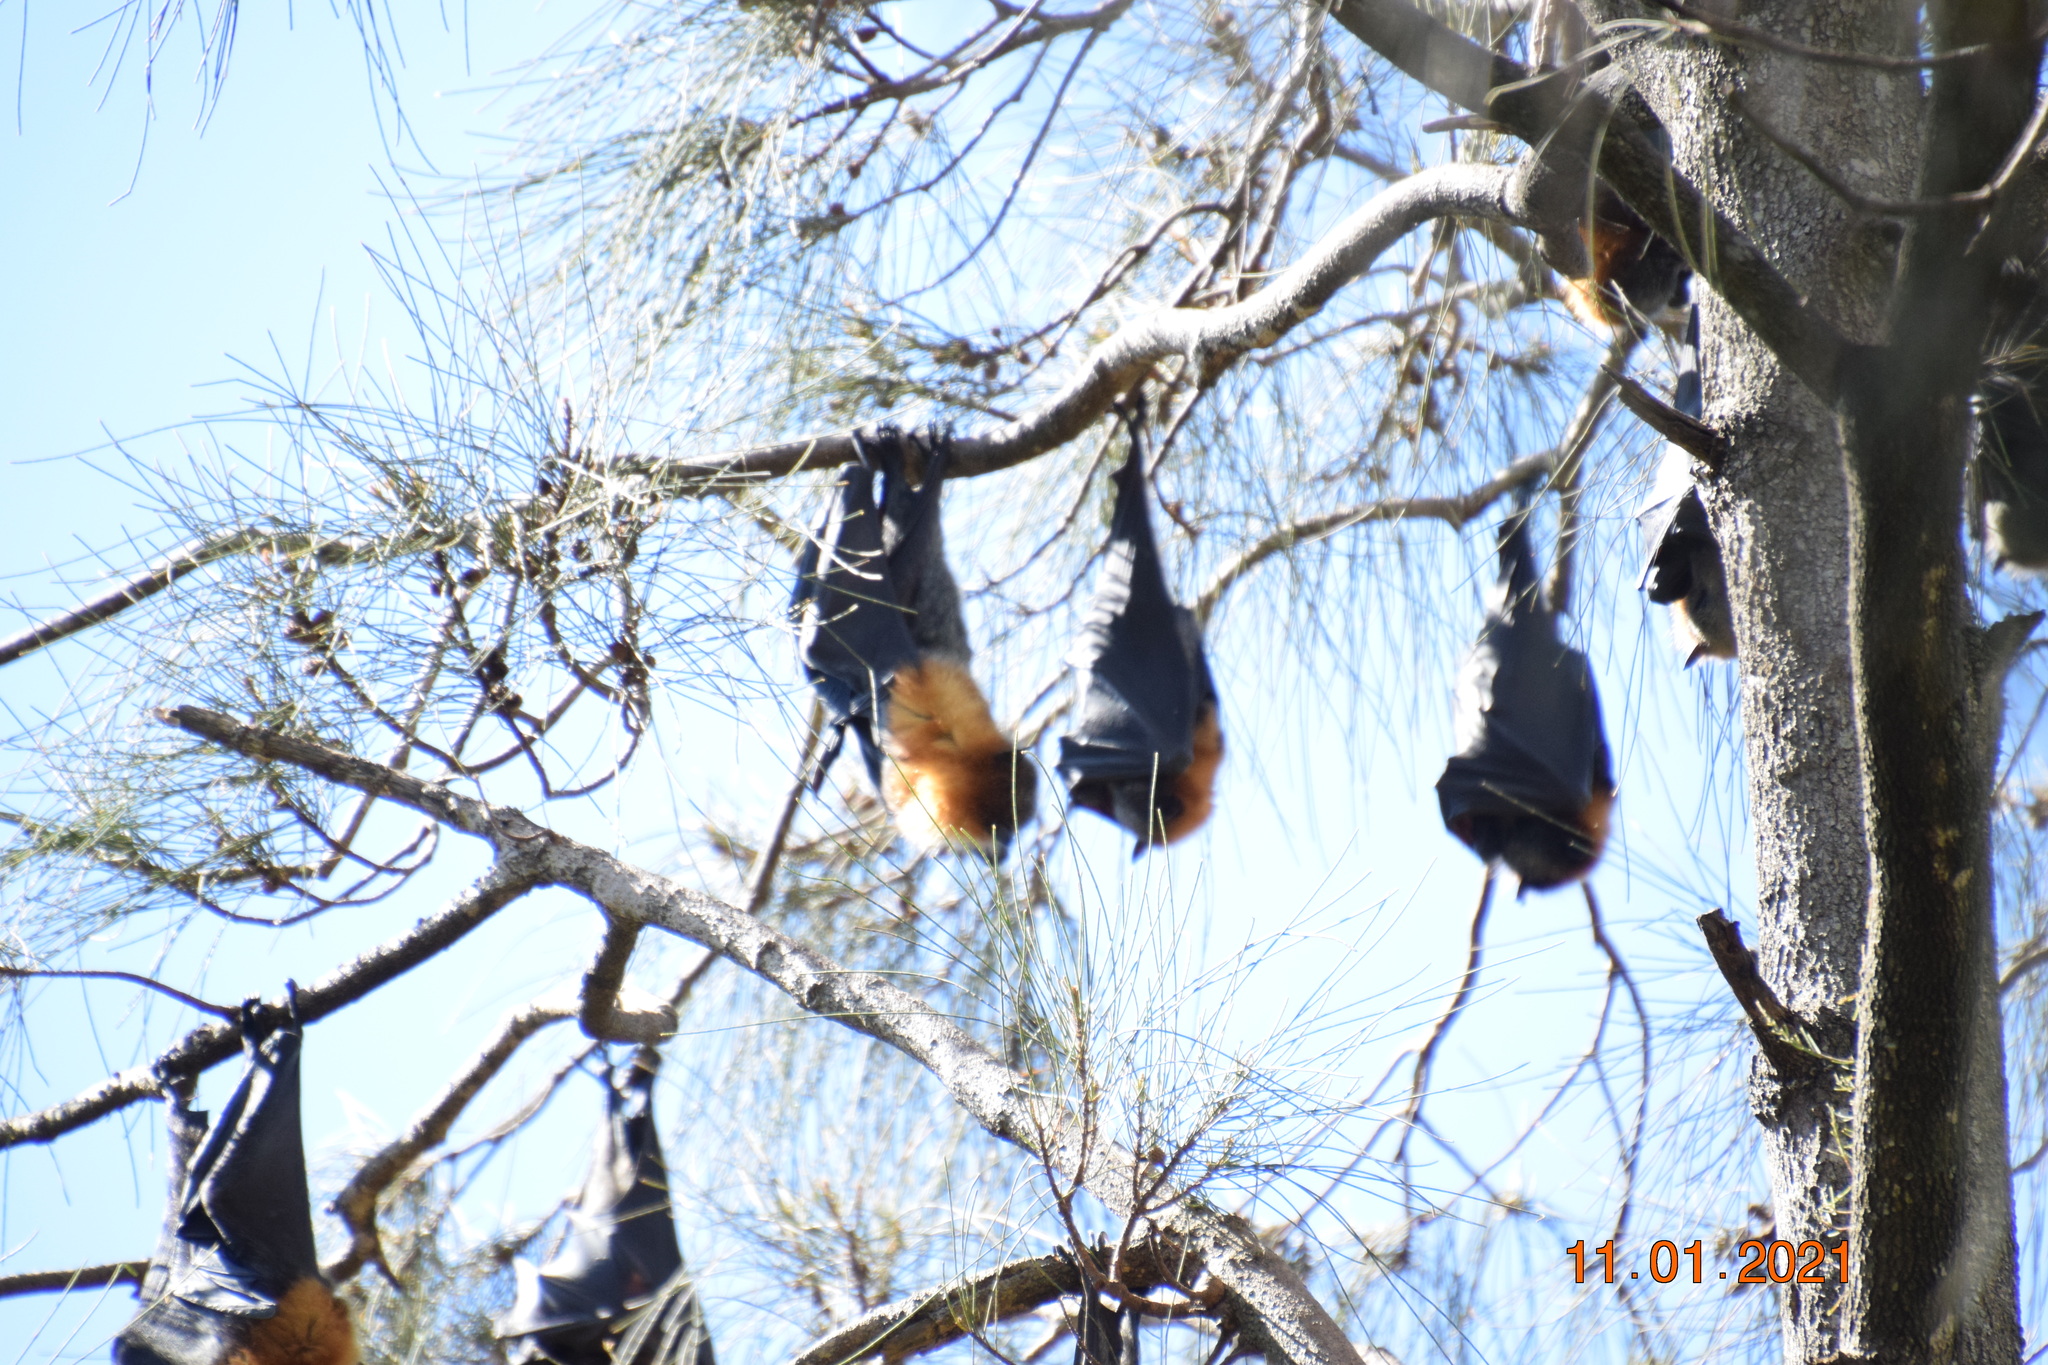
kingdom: Animalia
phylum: Chordata
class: Mammalia
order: Chiroptera
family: Pteropodidae
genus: Pteropus
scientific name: Pteropus poliocephalus
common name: Gray-headed flying fox
